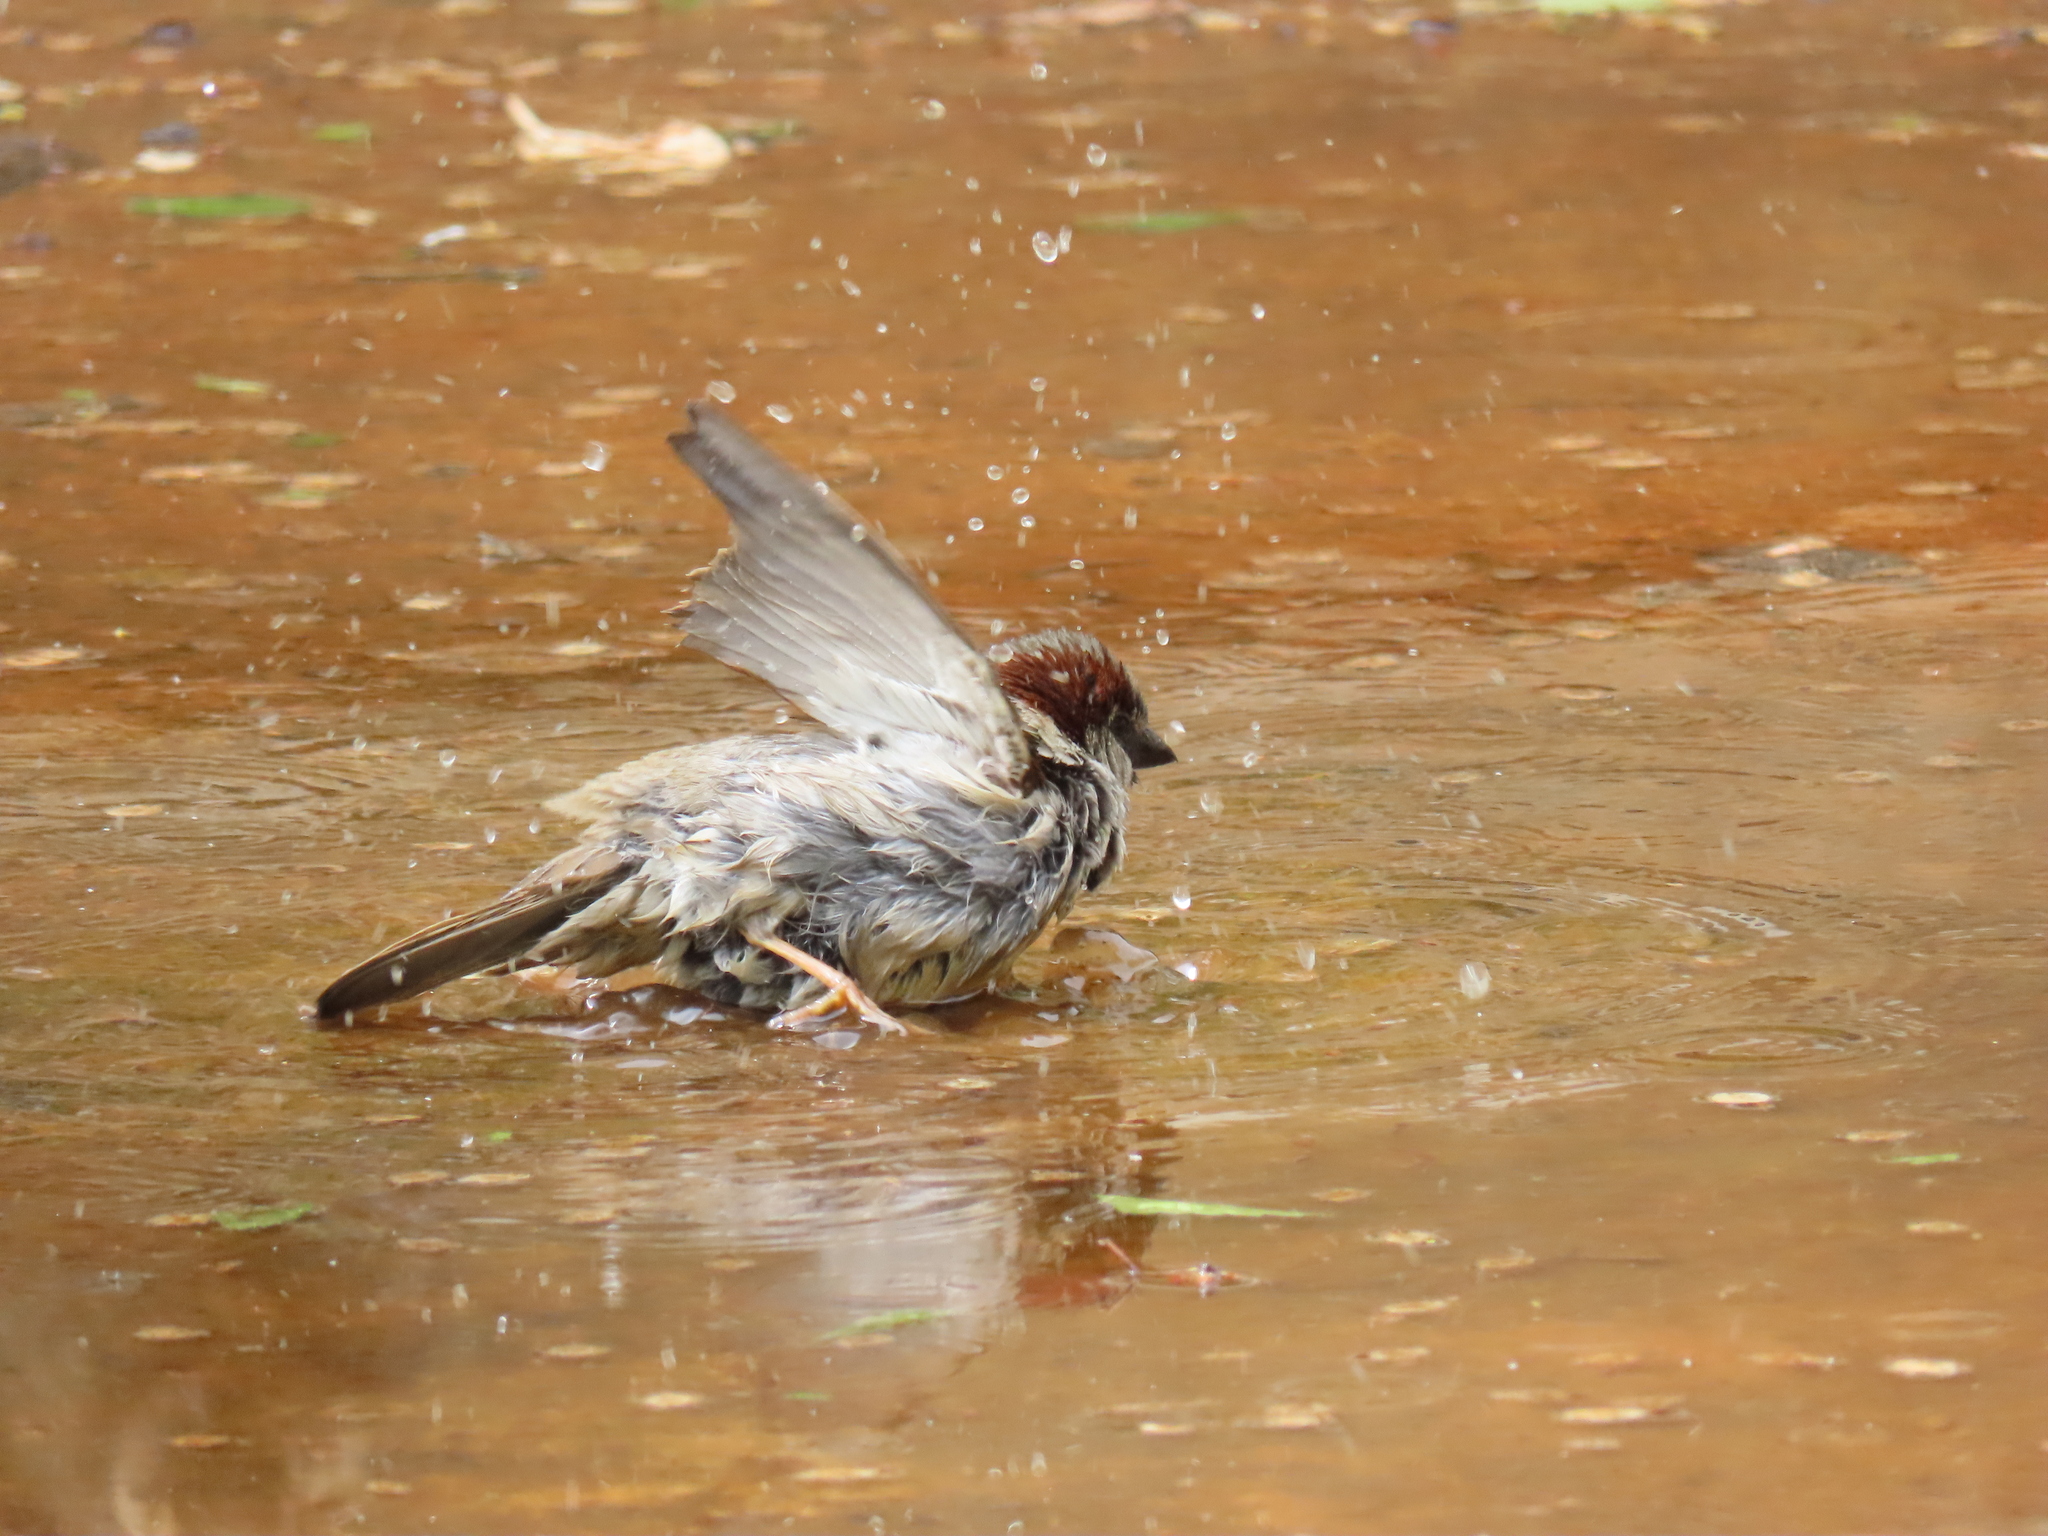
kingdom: Animalia
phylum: Chordata
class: Aves
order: Passeriformes
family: Passeridae
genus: Passer
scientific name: Passer domesticus
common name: House sparrow
